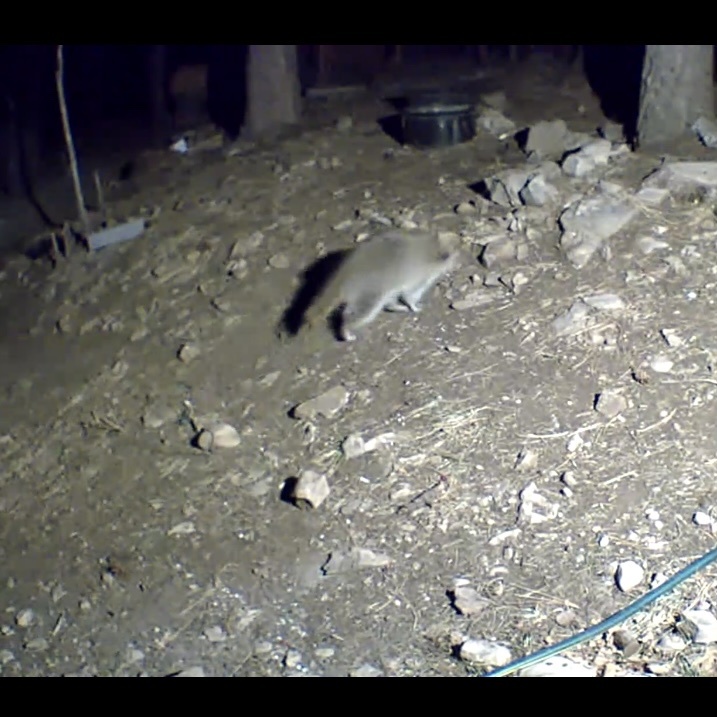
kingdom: Animalia
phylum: Chordata
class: Mammalia
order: Carnivora
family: Procyonidae
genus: Procyon
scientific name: Procyon lotor
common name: Raccoon
